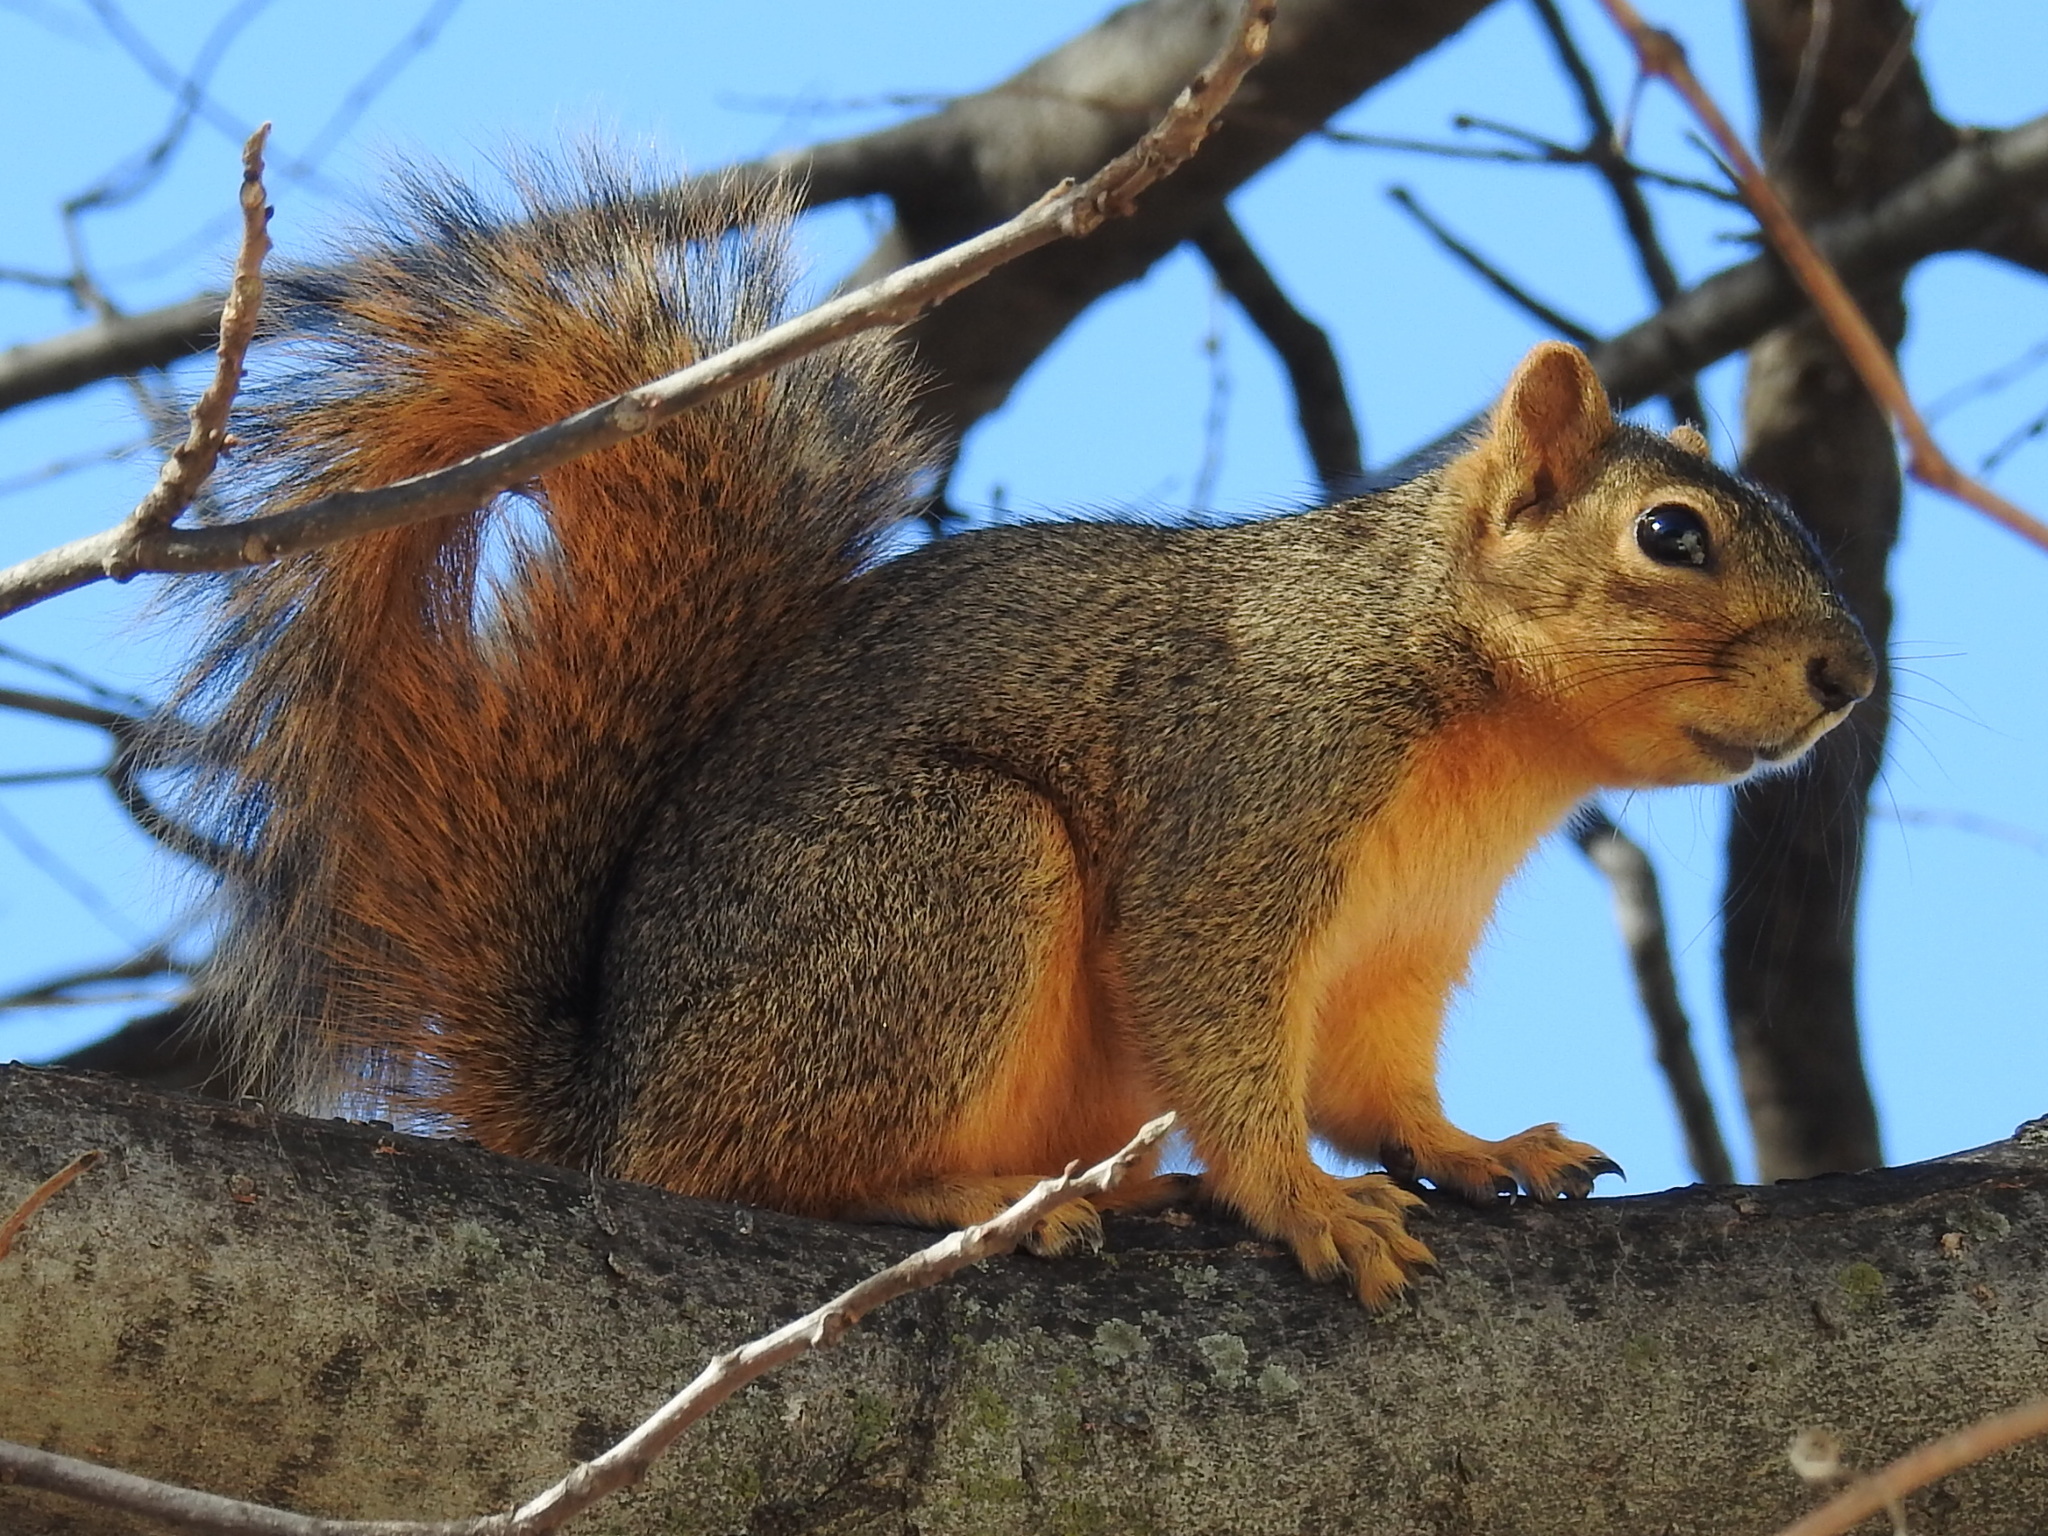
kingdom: Animalia
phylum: Chordata
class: Mammalia
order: Rodentia
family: Sciuridae
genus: Sciurus
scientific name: Sciurus niger
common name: Fox squirrel
